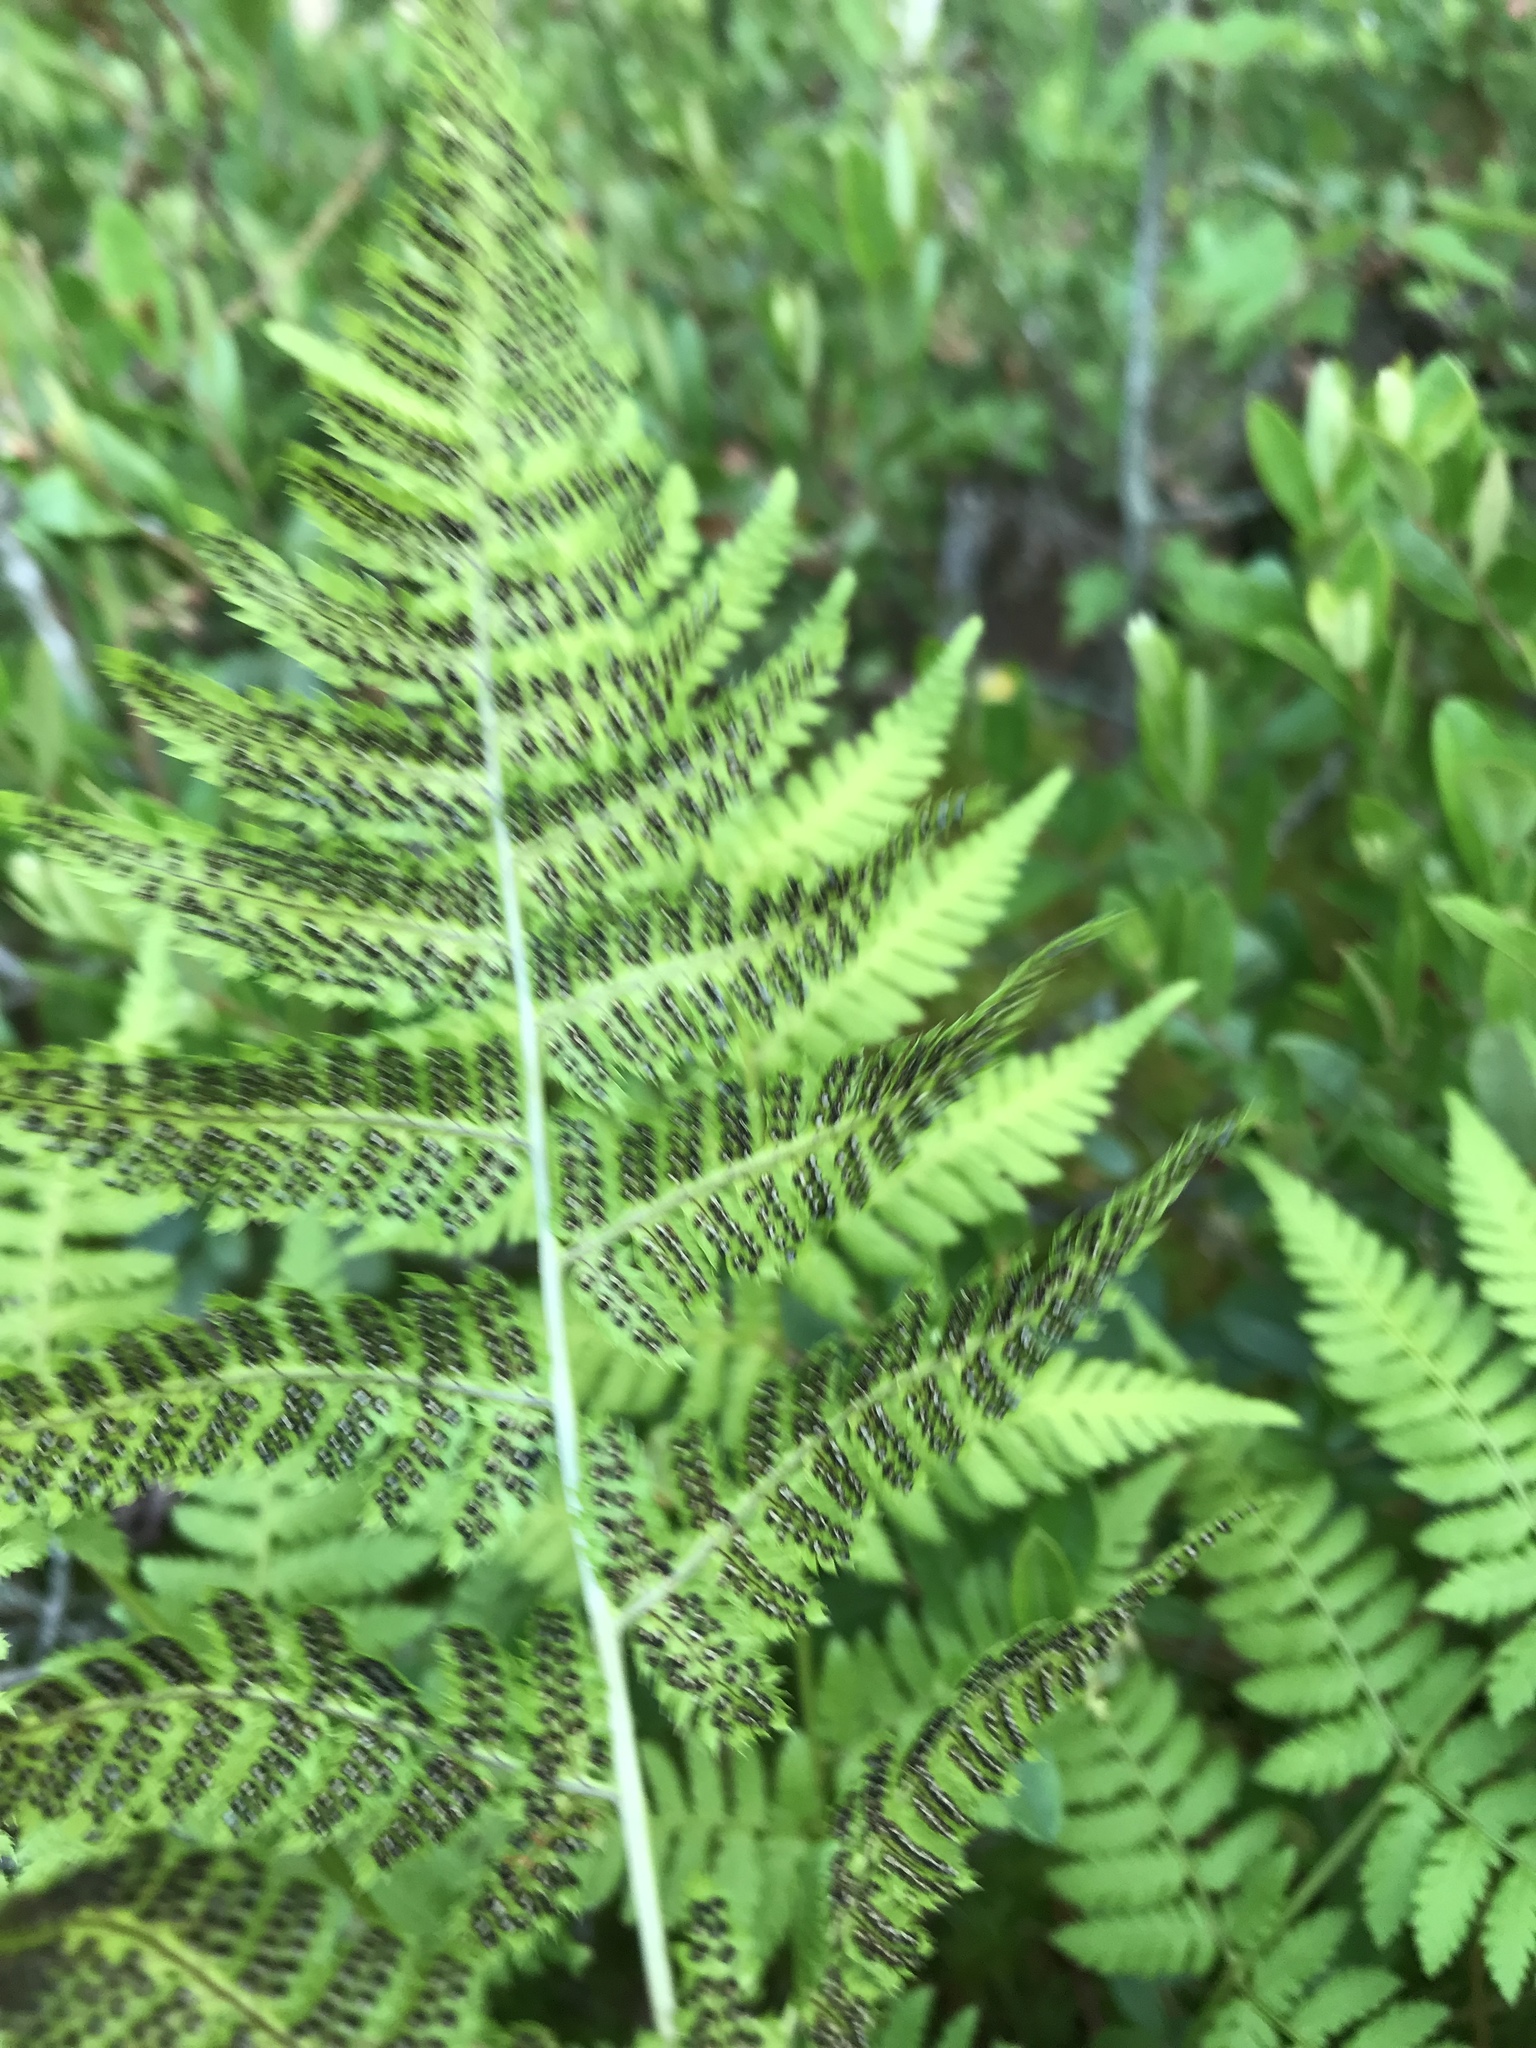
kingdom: Plantae
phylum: Tracheophyta
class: Polypodiopsida
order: Polypodiales
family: Dryopteridaceae
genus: Dryopteris
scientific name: Dryopteris carthusiana
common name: Narrow buckler-fern
